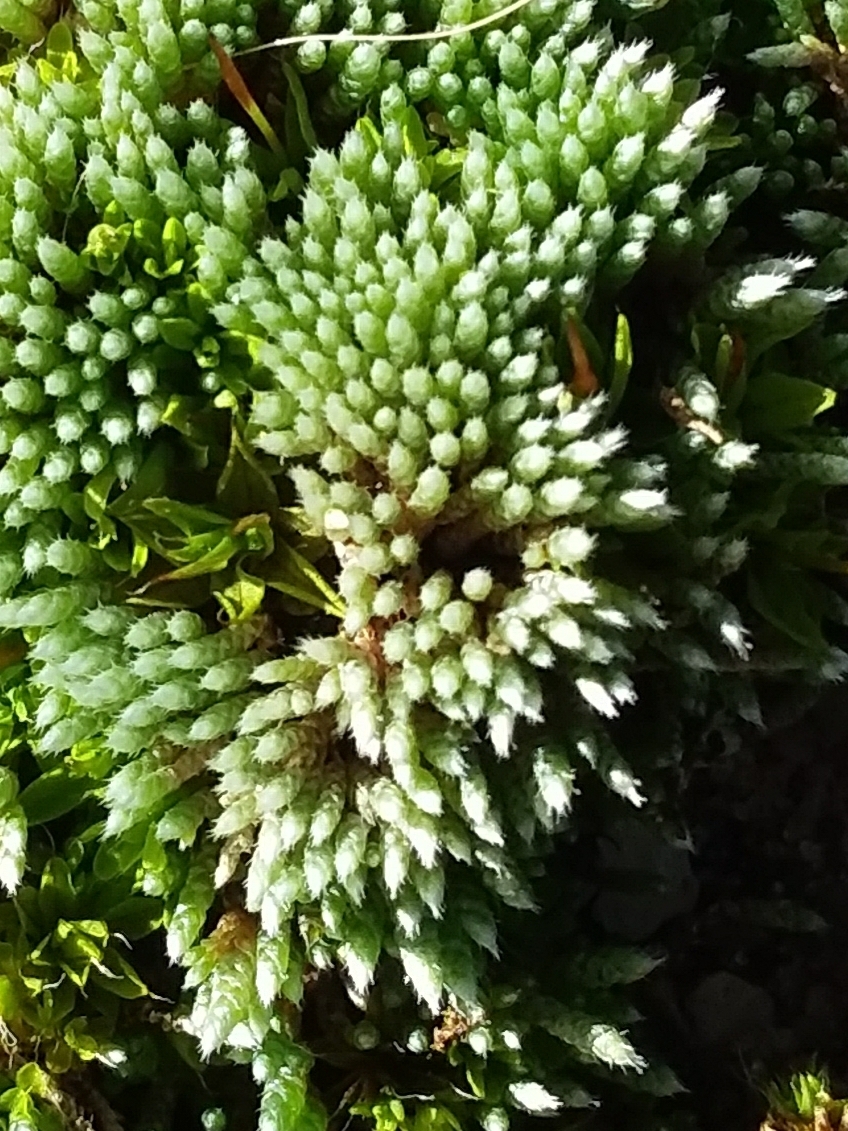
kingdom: Plantae
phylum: Bryophyta
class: Bryopsida
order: Bryales
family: Bryaceae
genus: Bryum
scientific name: Bryum argenteum
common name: Silver-moss
